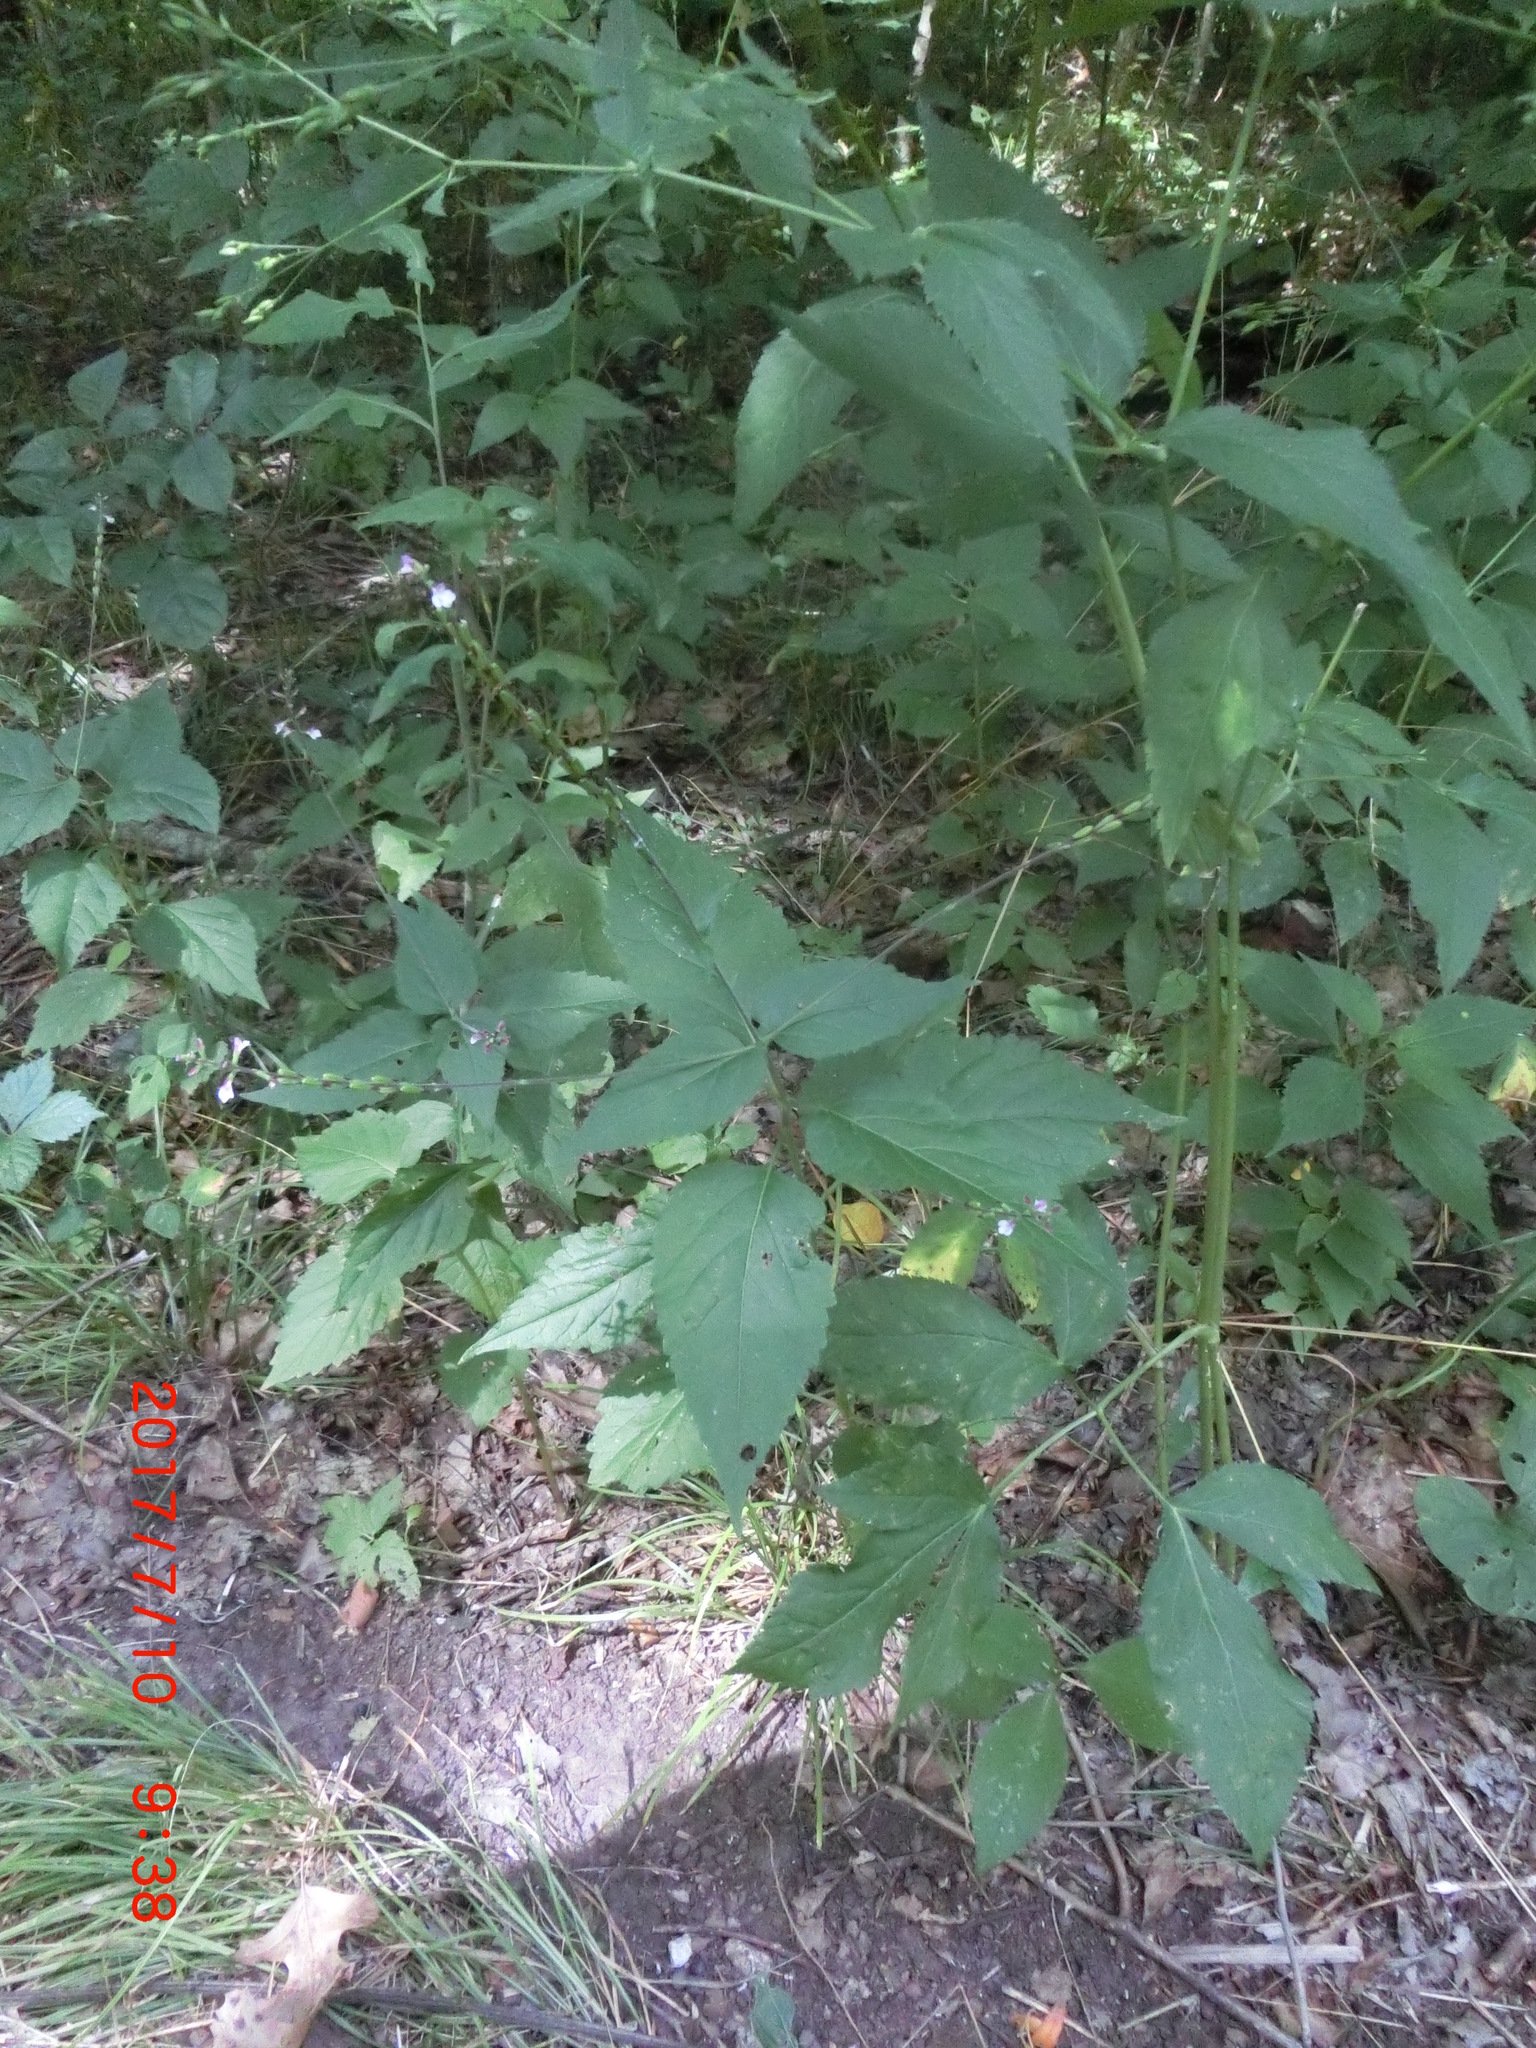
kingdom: Plantae
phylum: Tracheophyta
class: Magnoliopsida
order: Lamiales
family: Phrymaceae
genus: Phryma
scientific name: Phryma leptostachya
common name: American lopseed
